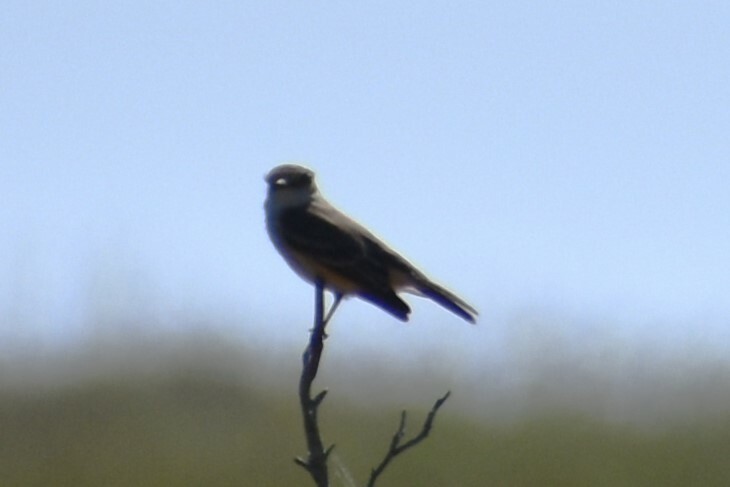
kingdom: Animalia
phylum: Chordata
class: Aves
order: Passeriformes
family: Tyrannidae
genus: Pyrocephalus
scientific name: Pyrocephalus rubinus
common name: Vermilion flycatcher
